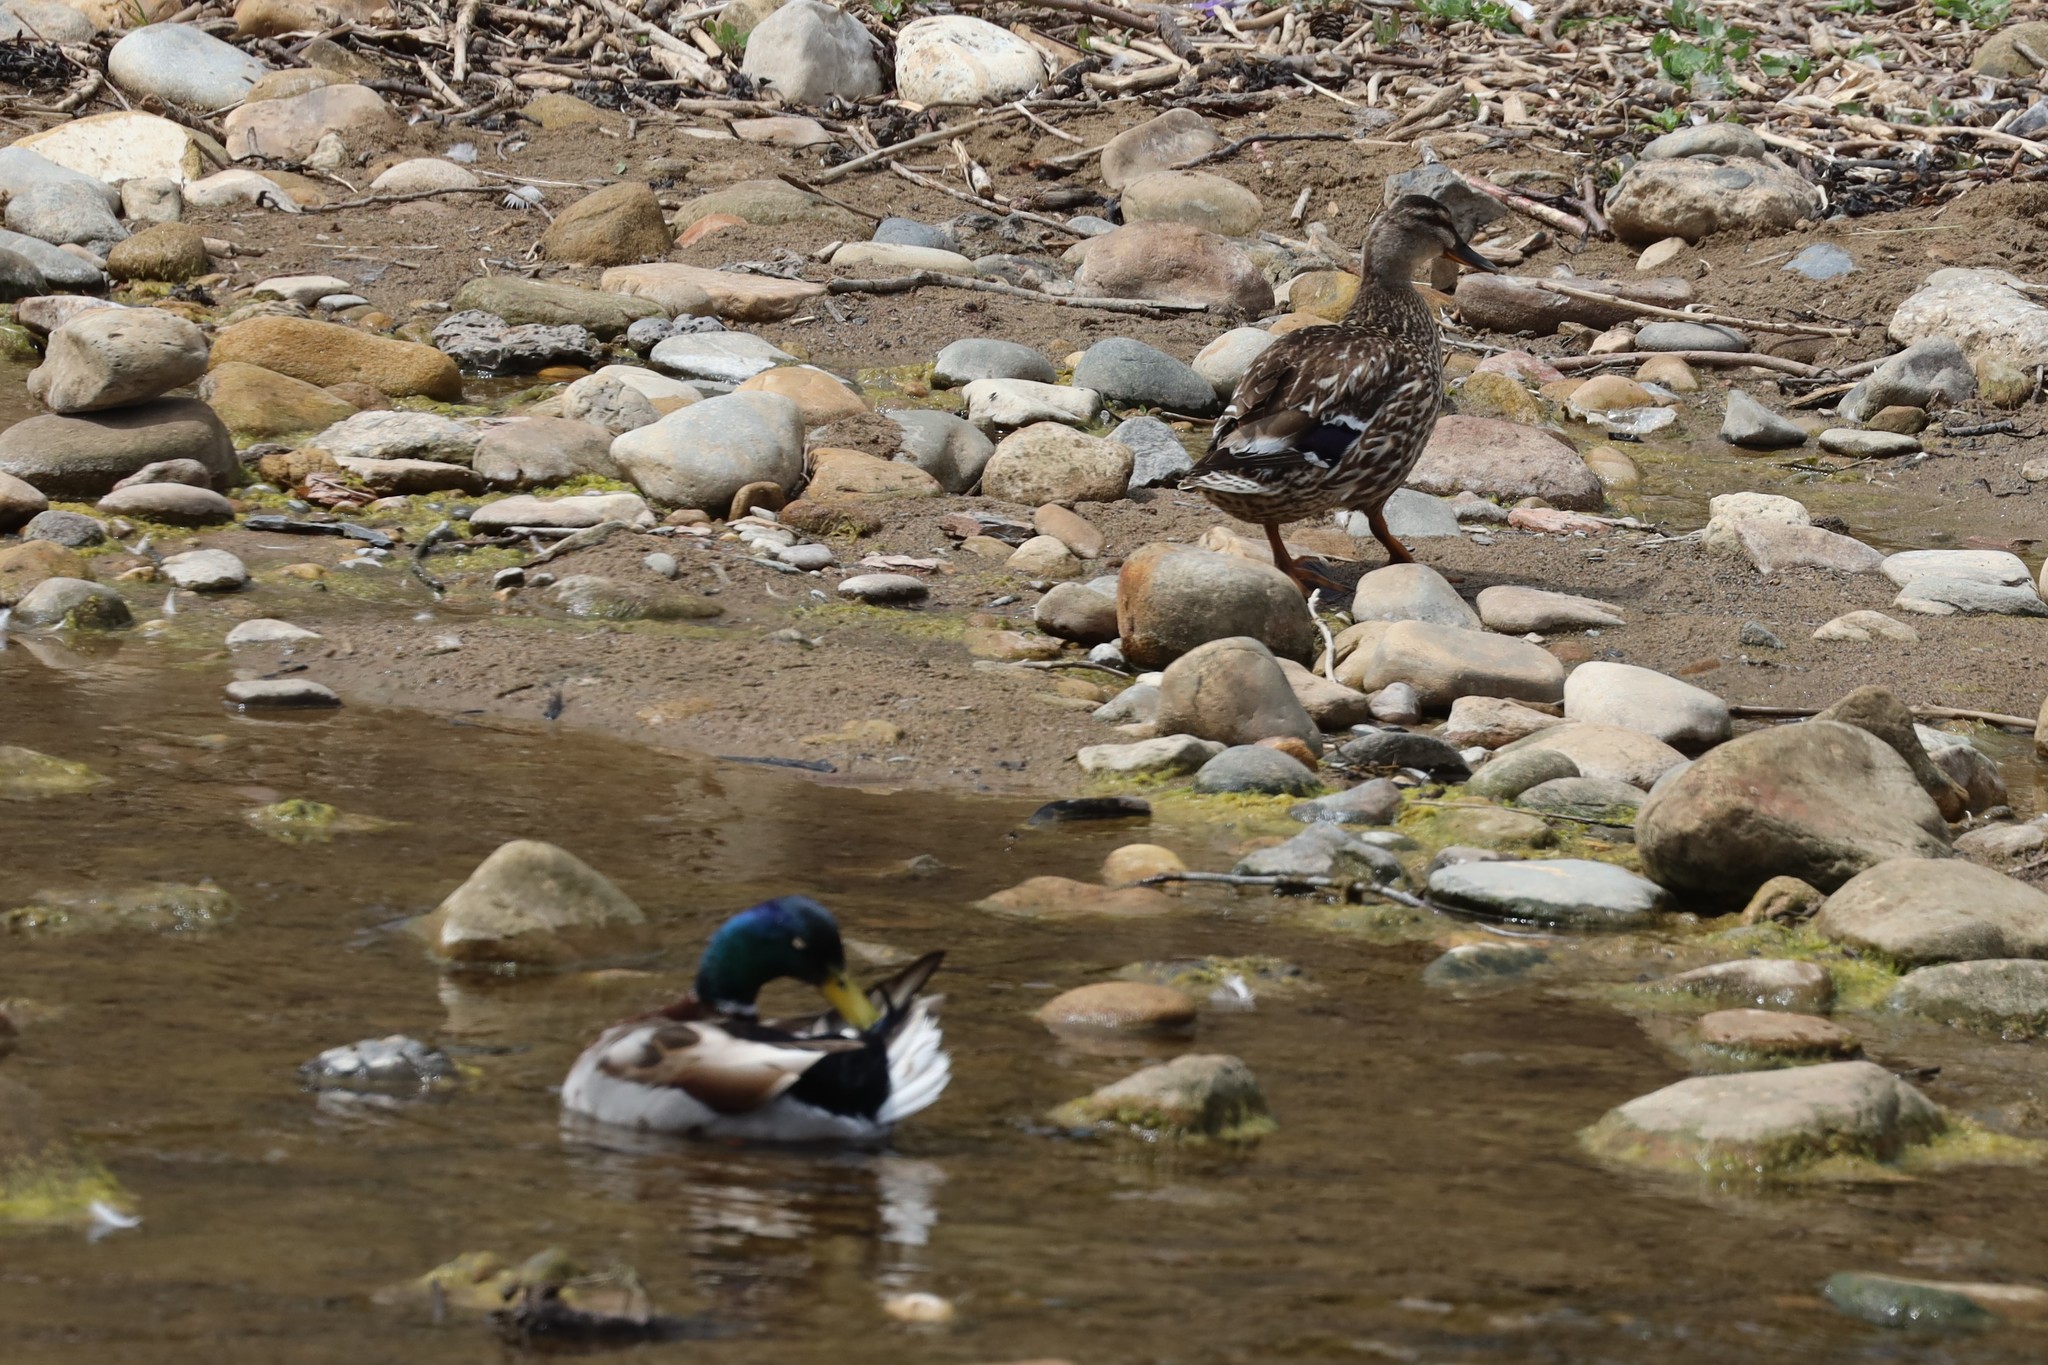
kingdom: Animalia
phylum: Chordata
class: Aves
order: Anseriformes
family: Anatidae
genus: Anas
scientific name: Anas platyrhynchos
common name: Mallard
